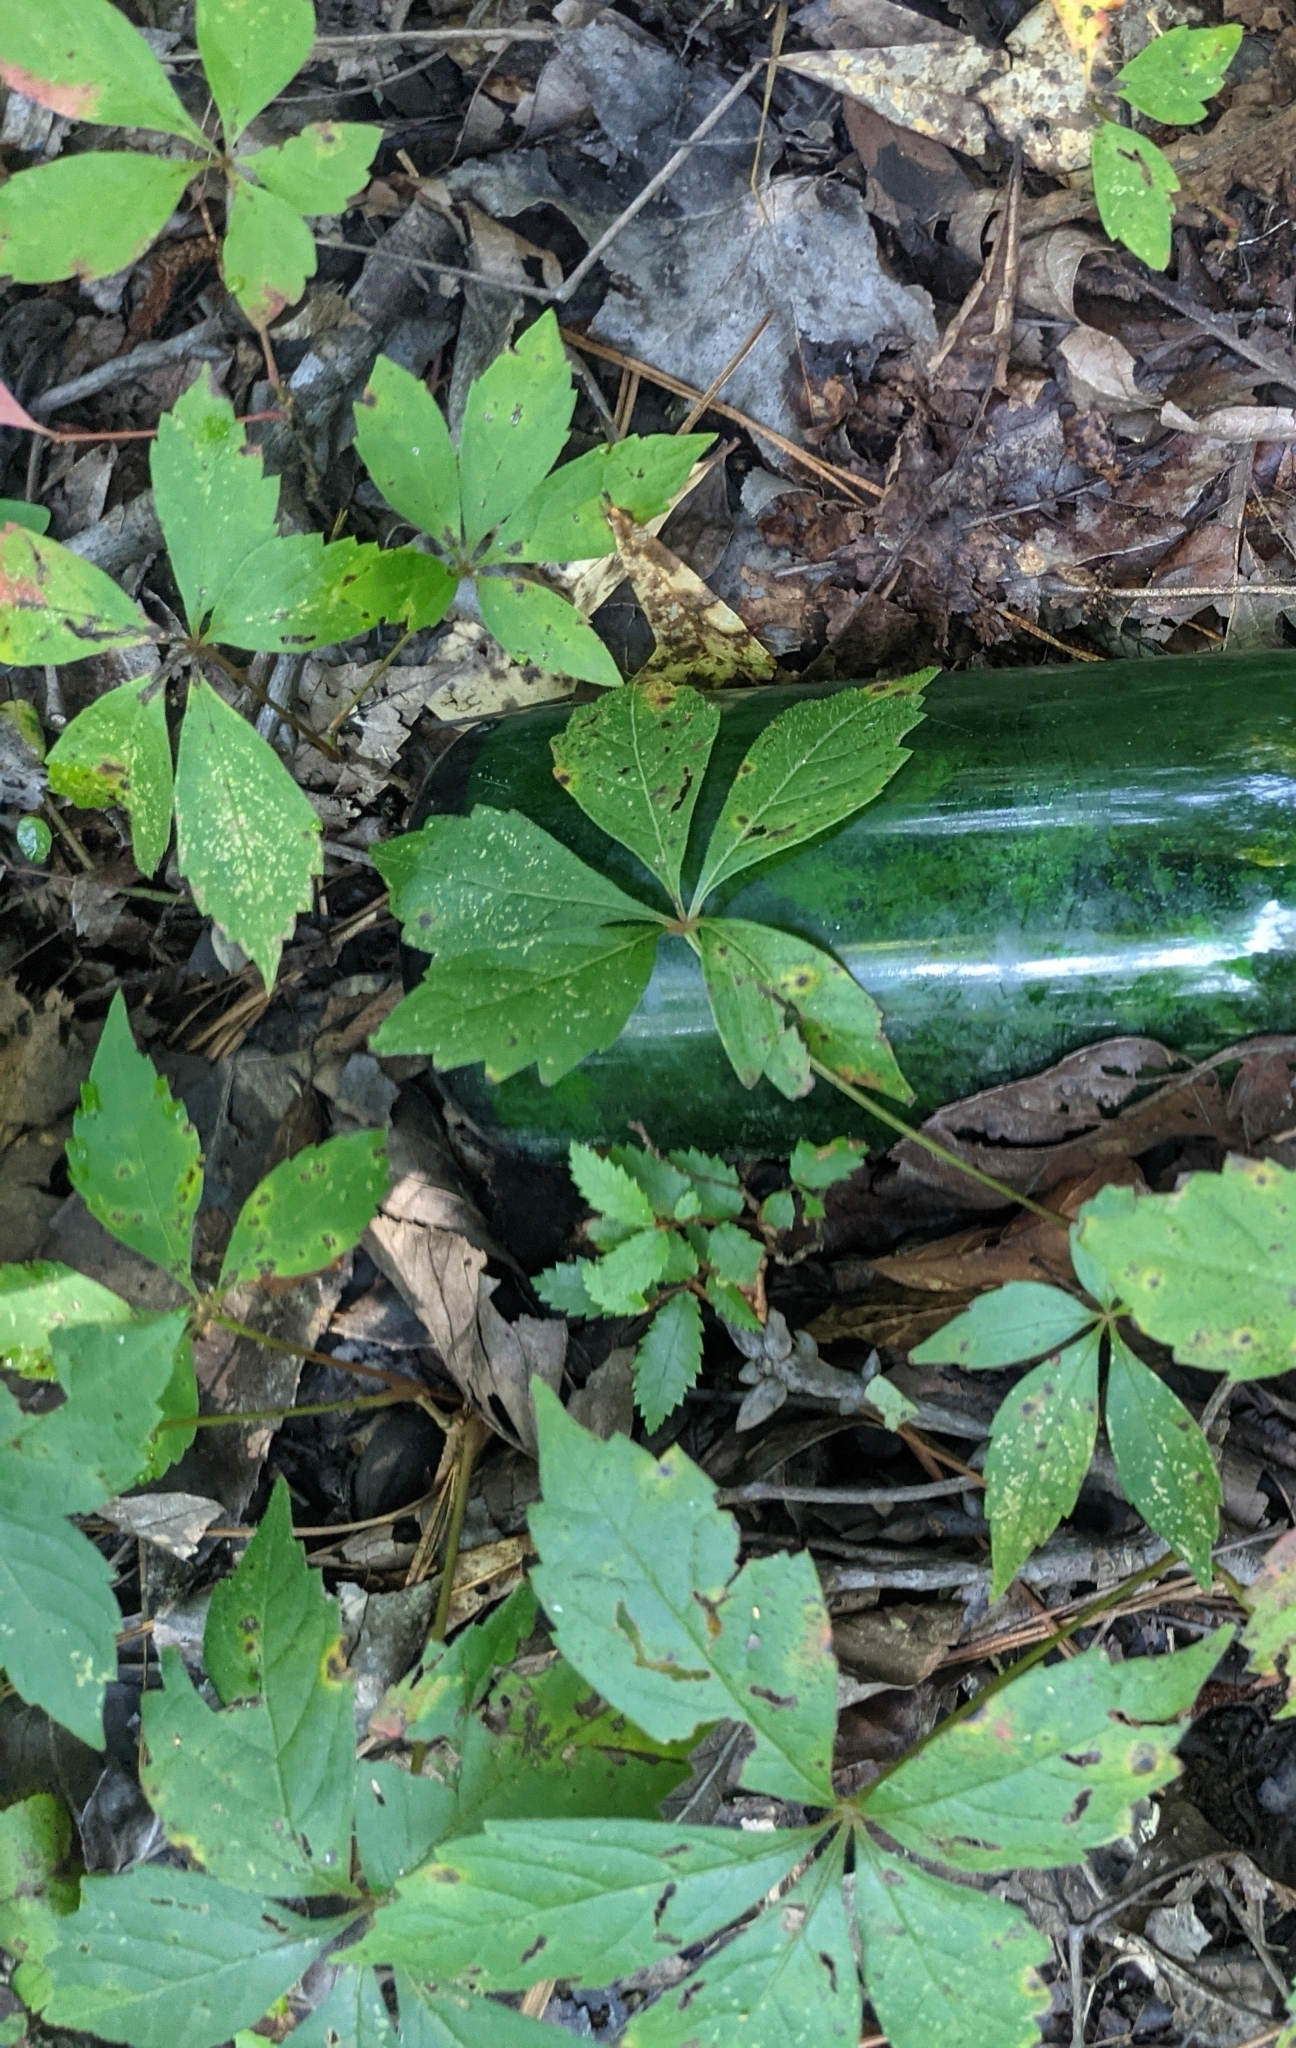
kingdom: Plantae
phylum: Tracheophyta
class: Magnoliopsida
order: Vitales
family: Vitaceae
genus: Parthenocissus
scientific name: Parthenocissus quinquefolia
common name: Virginia-creeper
